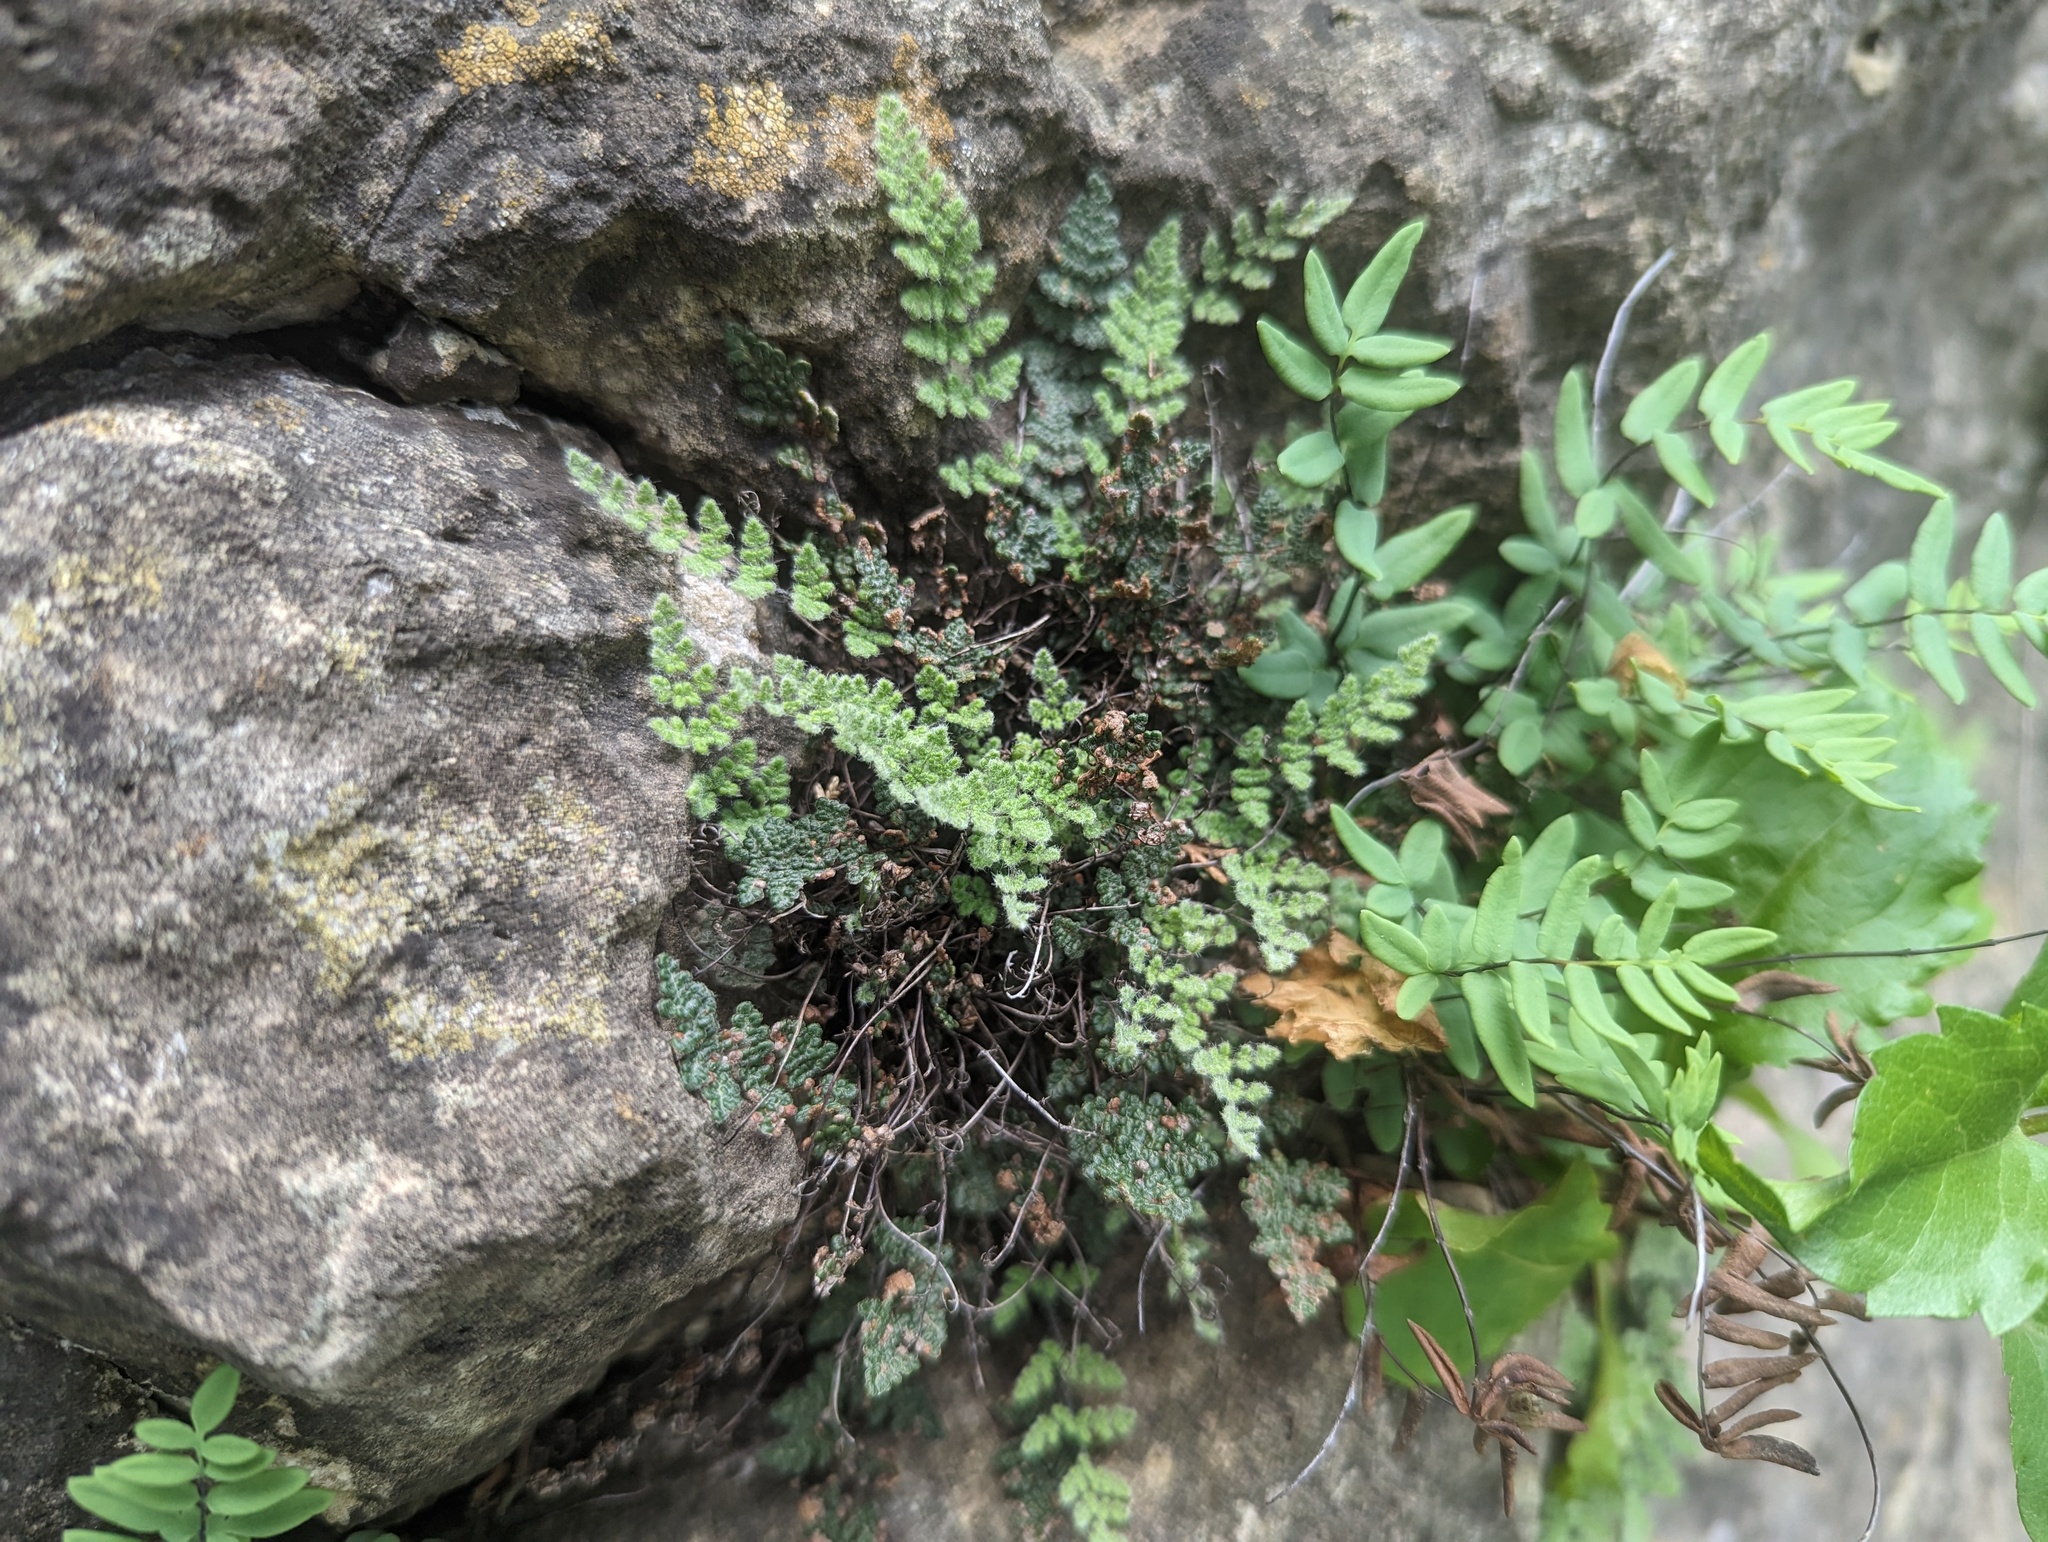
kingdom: Plantae
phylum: Tracheophyta
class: Polypodiopsida
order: Polypodiales
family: Pteridaceae
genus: Myriopteris
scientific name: Myriopteris gracilis
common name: Fee's lip fern
